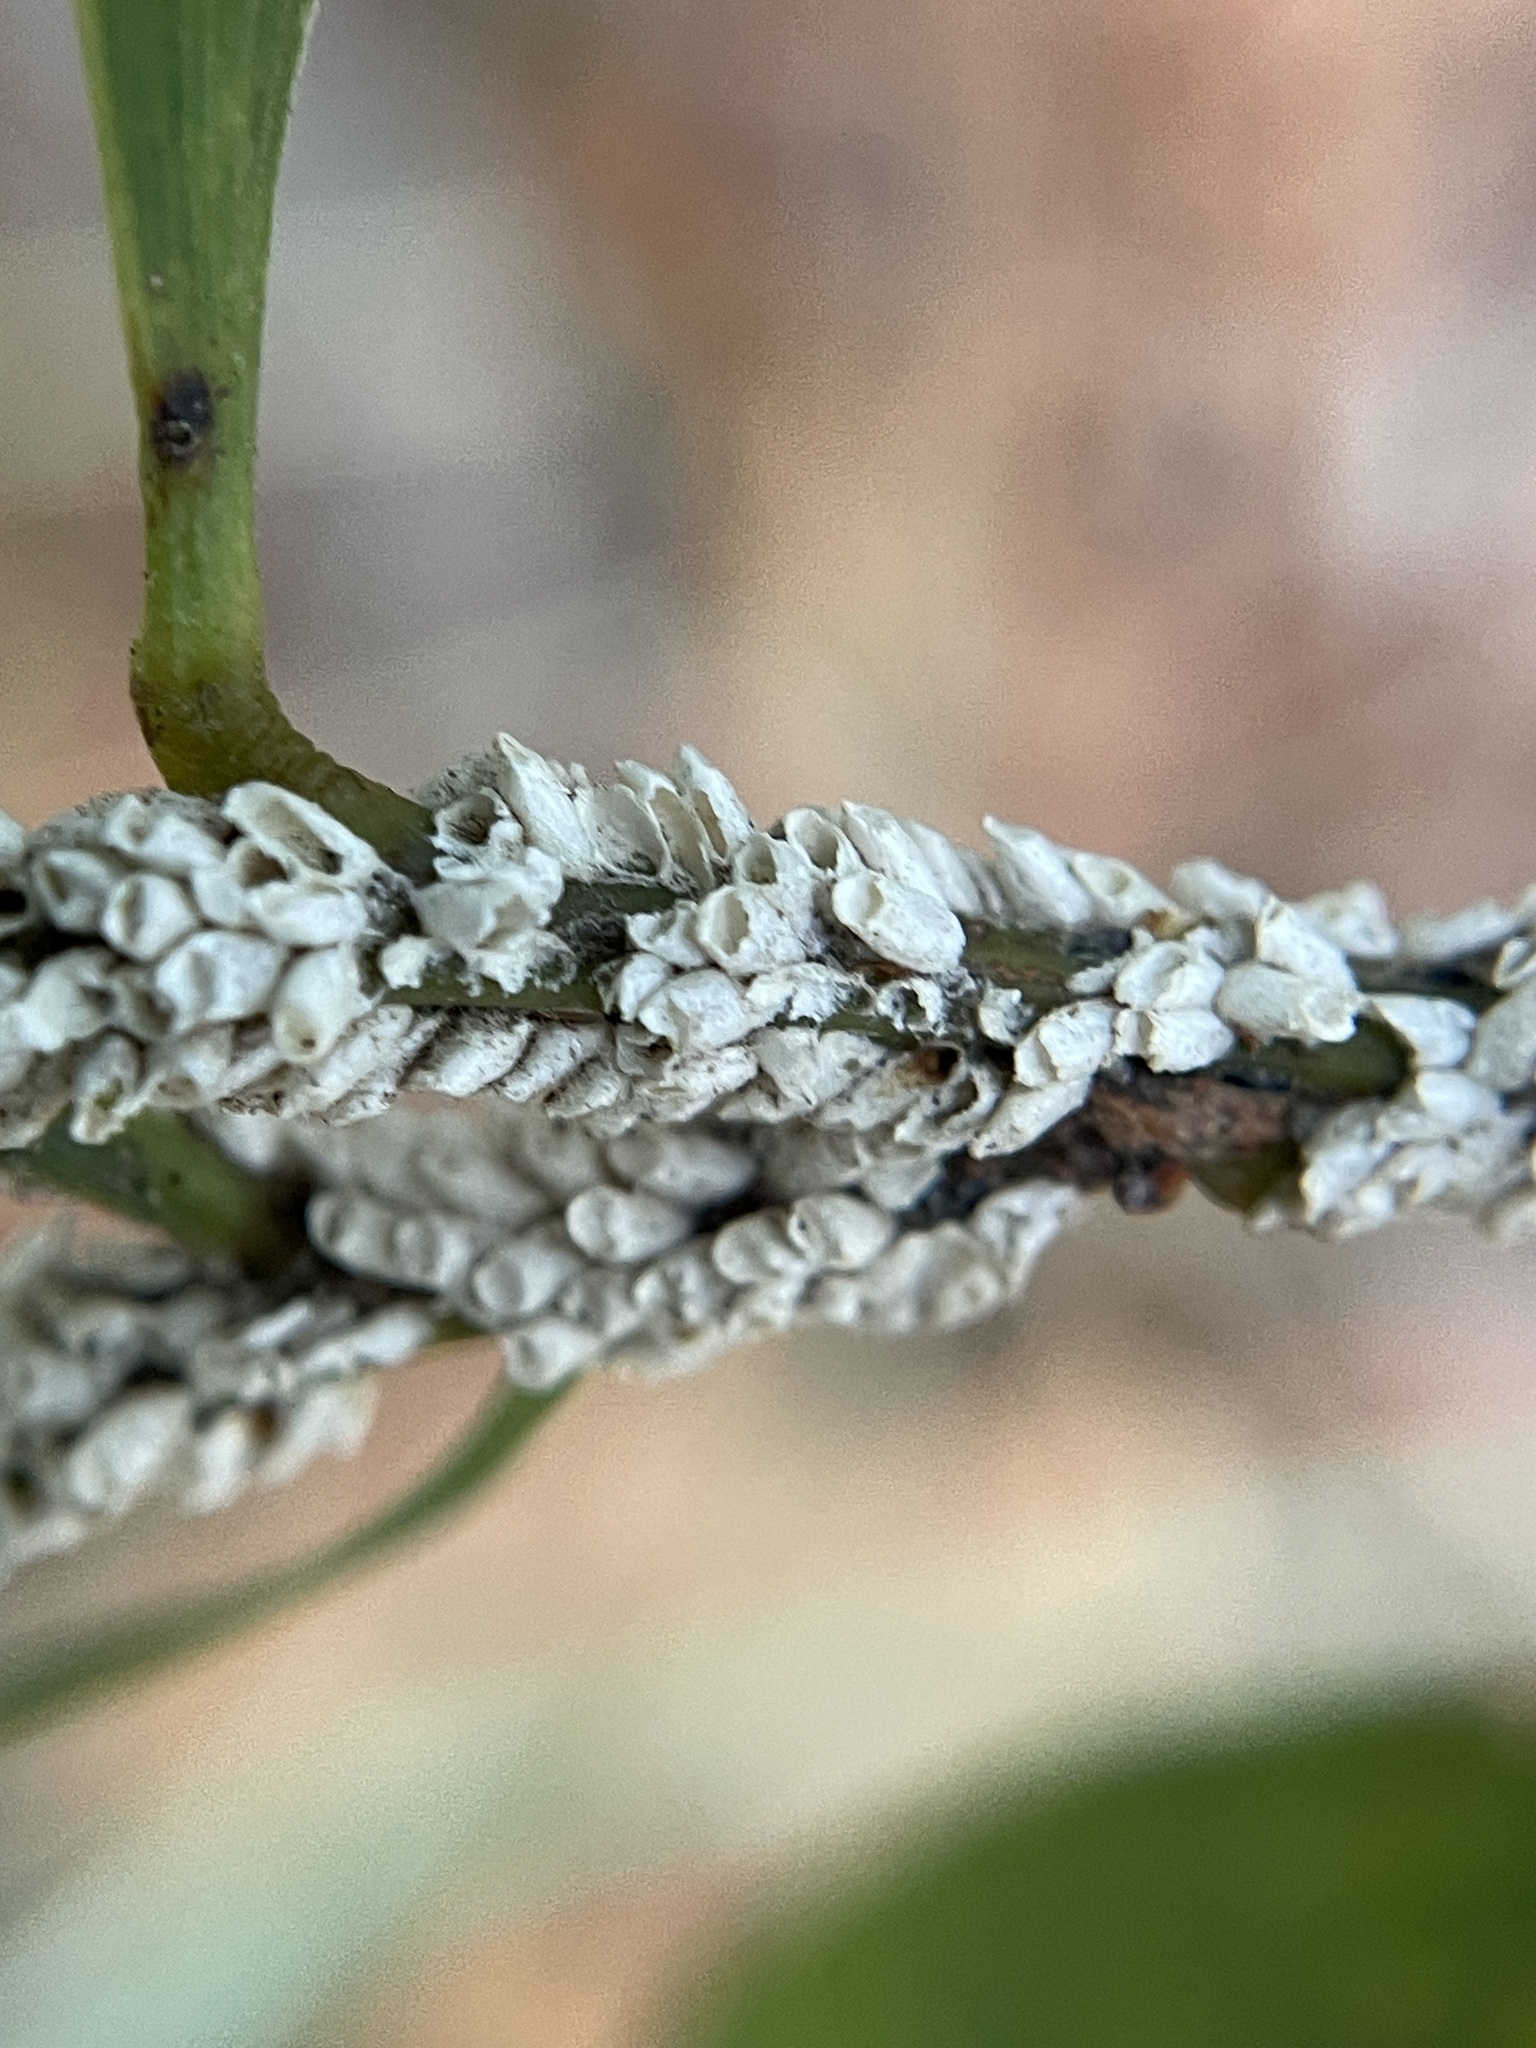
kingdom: Animalia
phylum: Arthropoda
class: Insecta
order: Hemiptera
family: Coccidae
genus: Cryptes
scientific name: Cryptes baccatus
